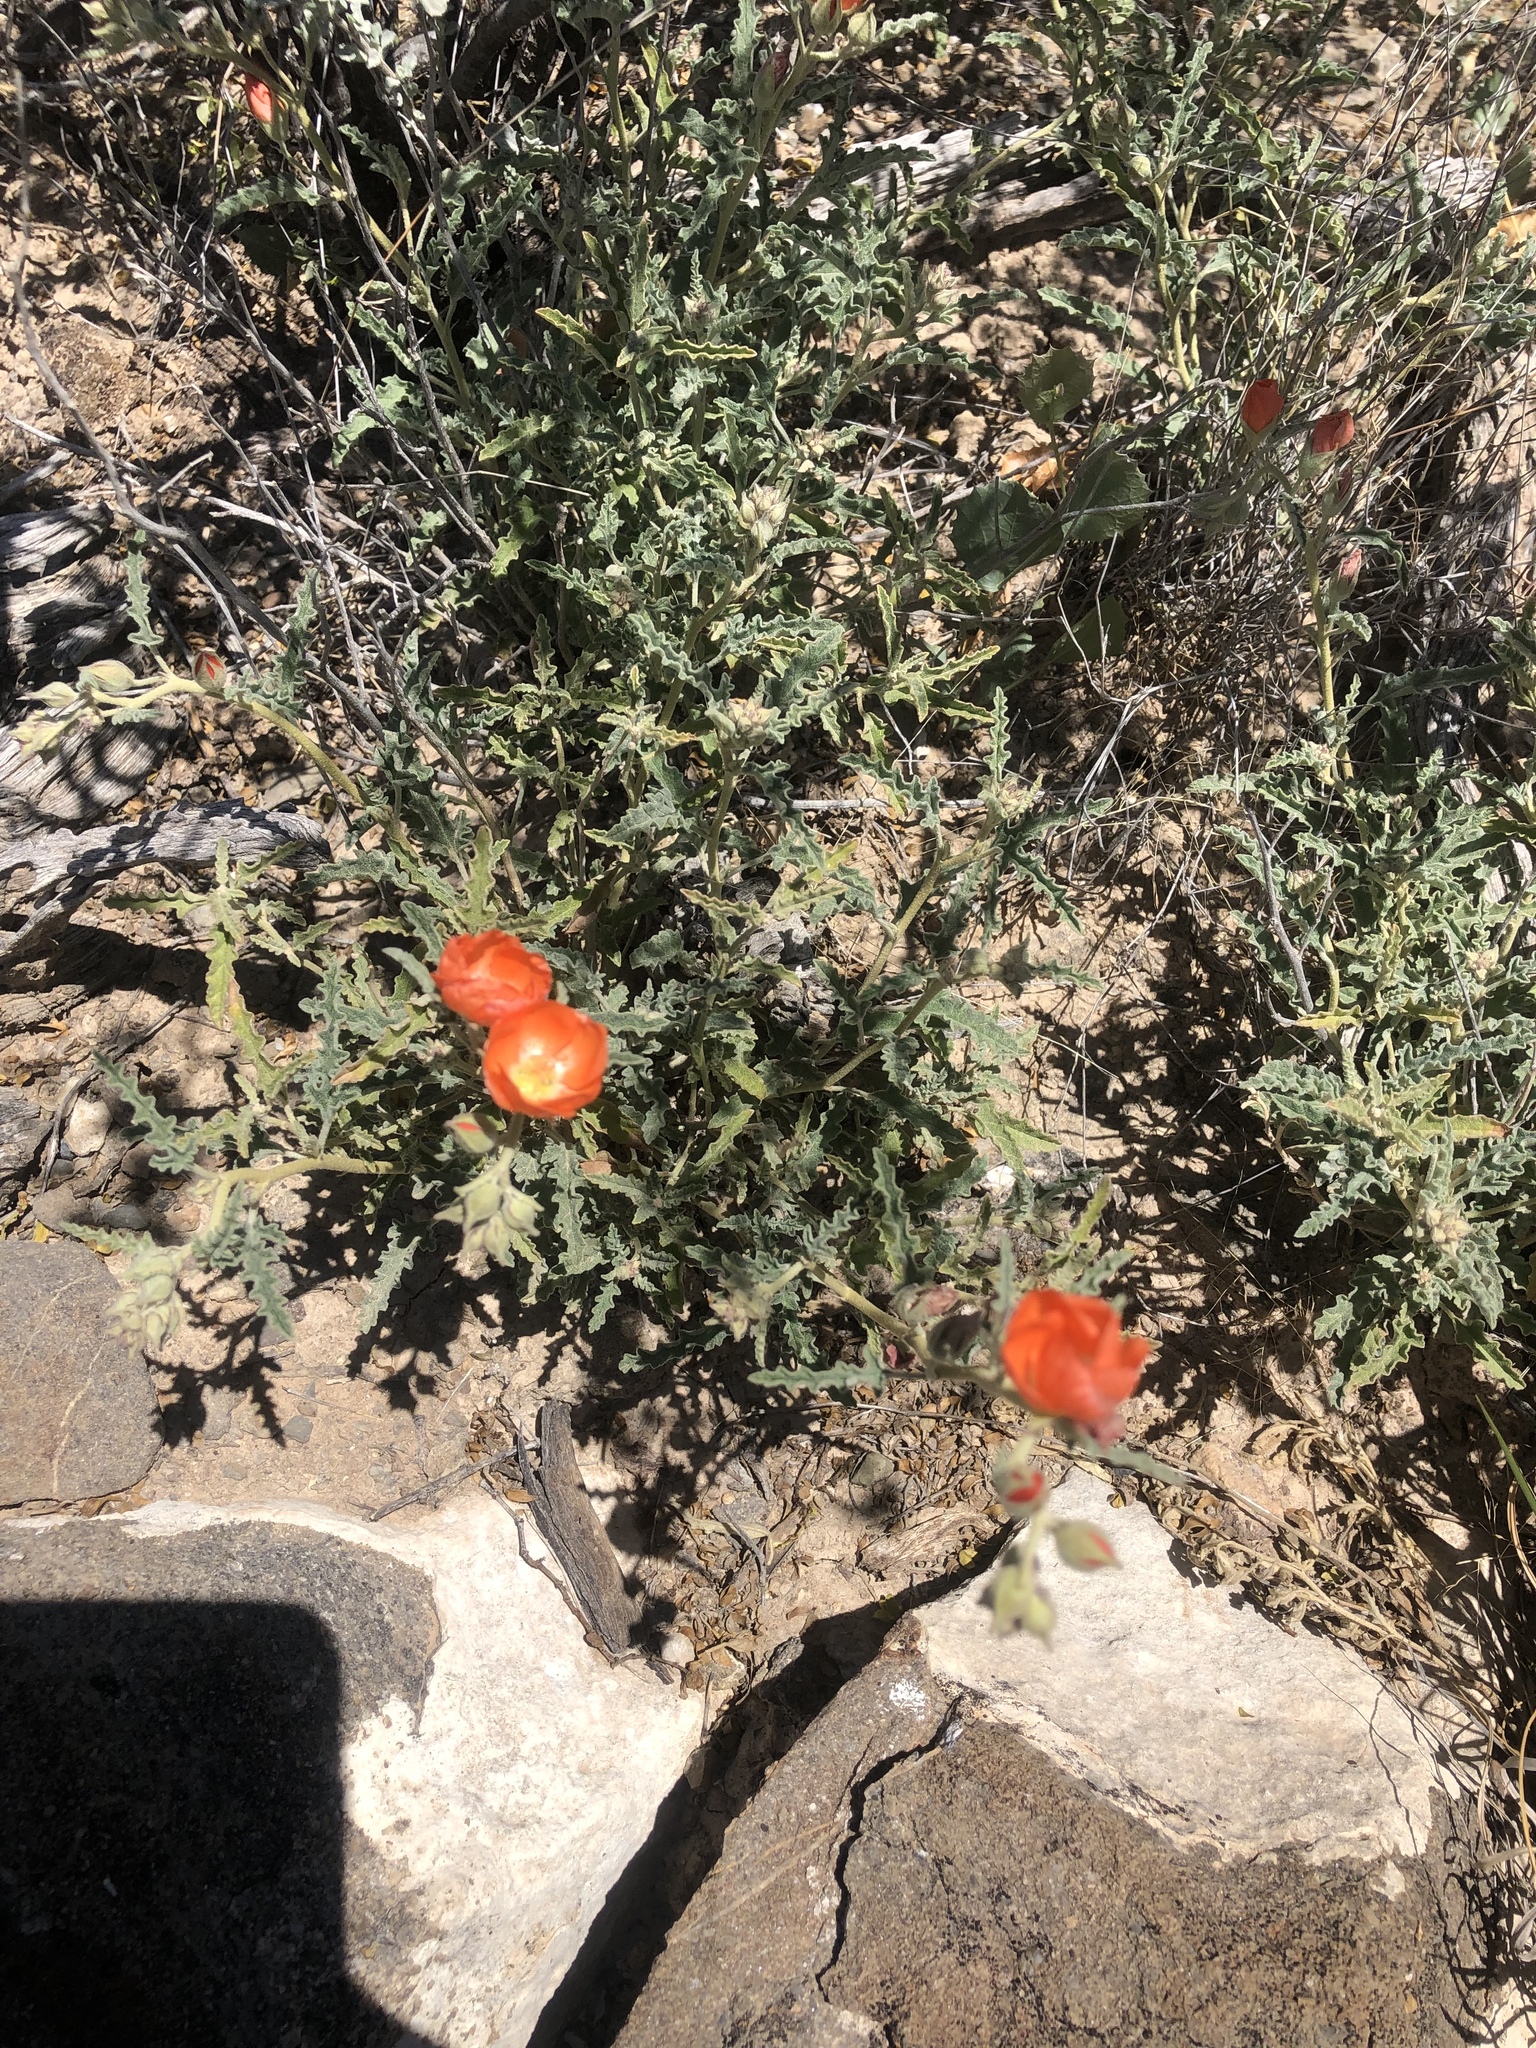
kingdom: Plantae
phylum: Tracheophyta
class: Magnoliopsida
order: Malvales
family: Malvaceae
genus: Sphaeralcea
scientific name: Sphaeralcea hastulata
